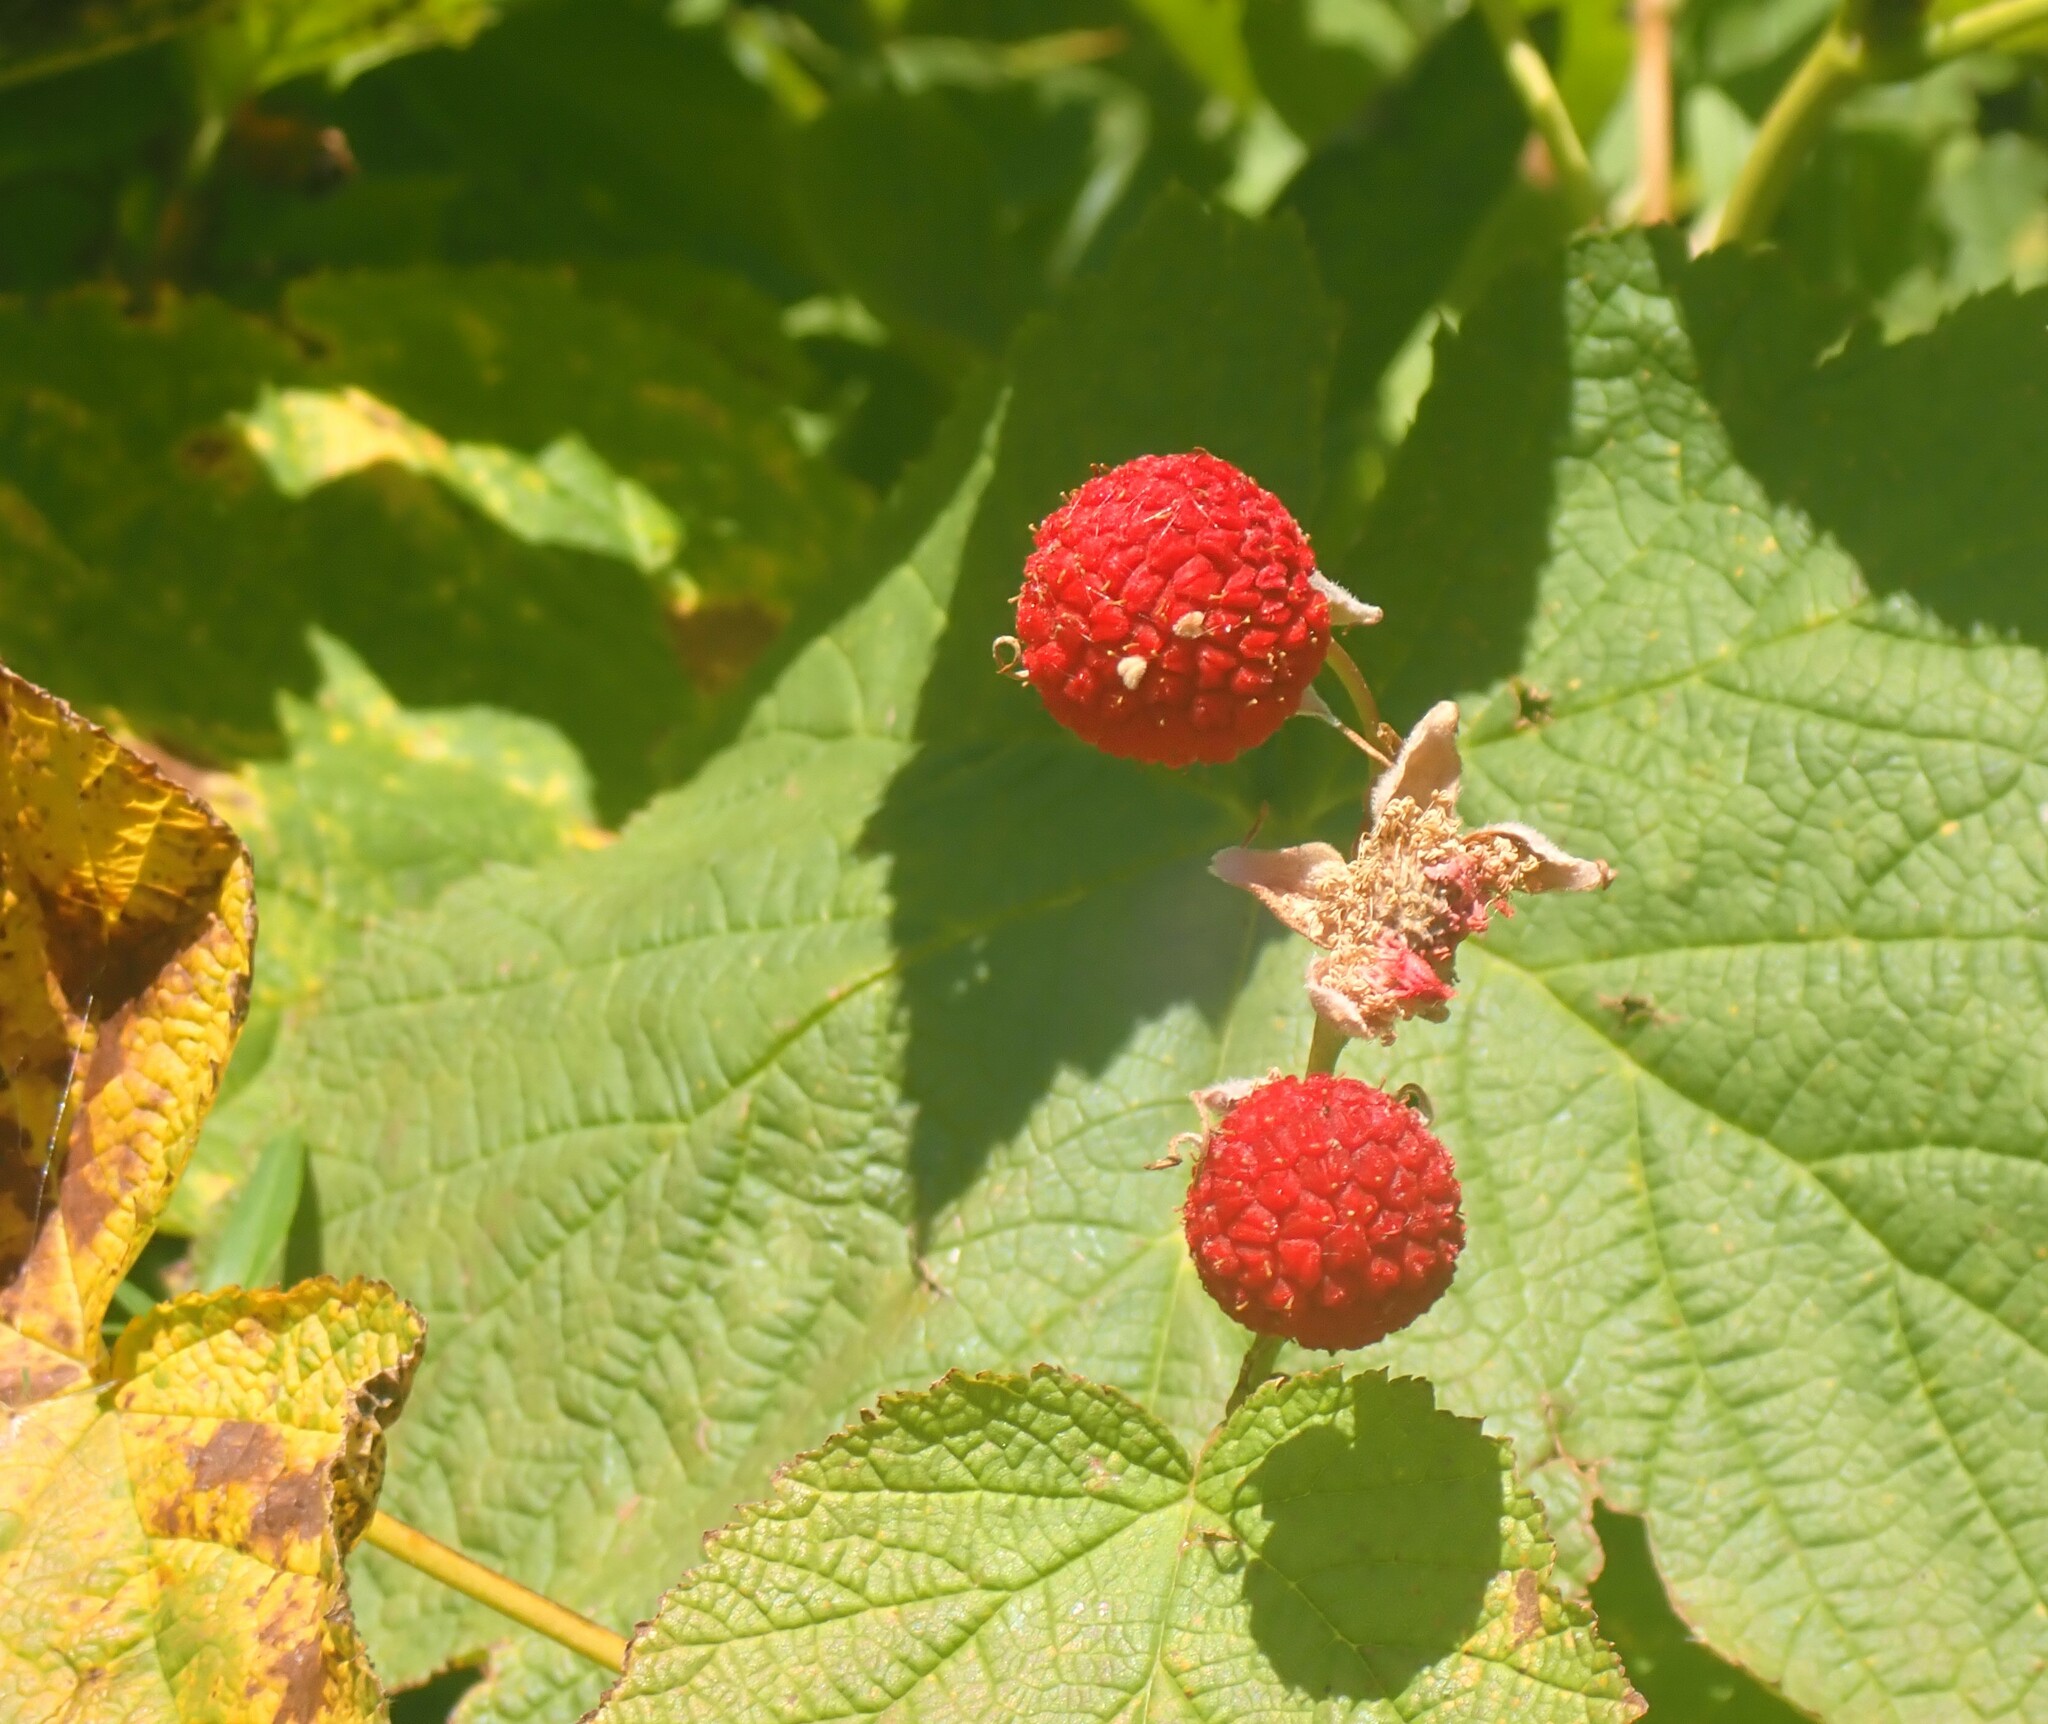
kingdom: Plantae
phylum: Tracheophyta
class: Magnoliopsida
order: Rosales
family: Rosaceae
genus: Rubus
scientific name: Rubus parviflorus
